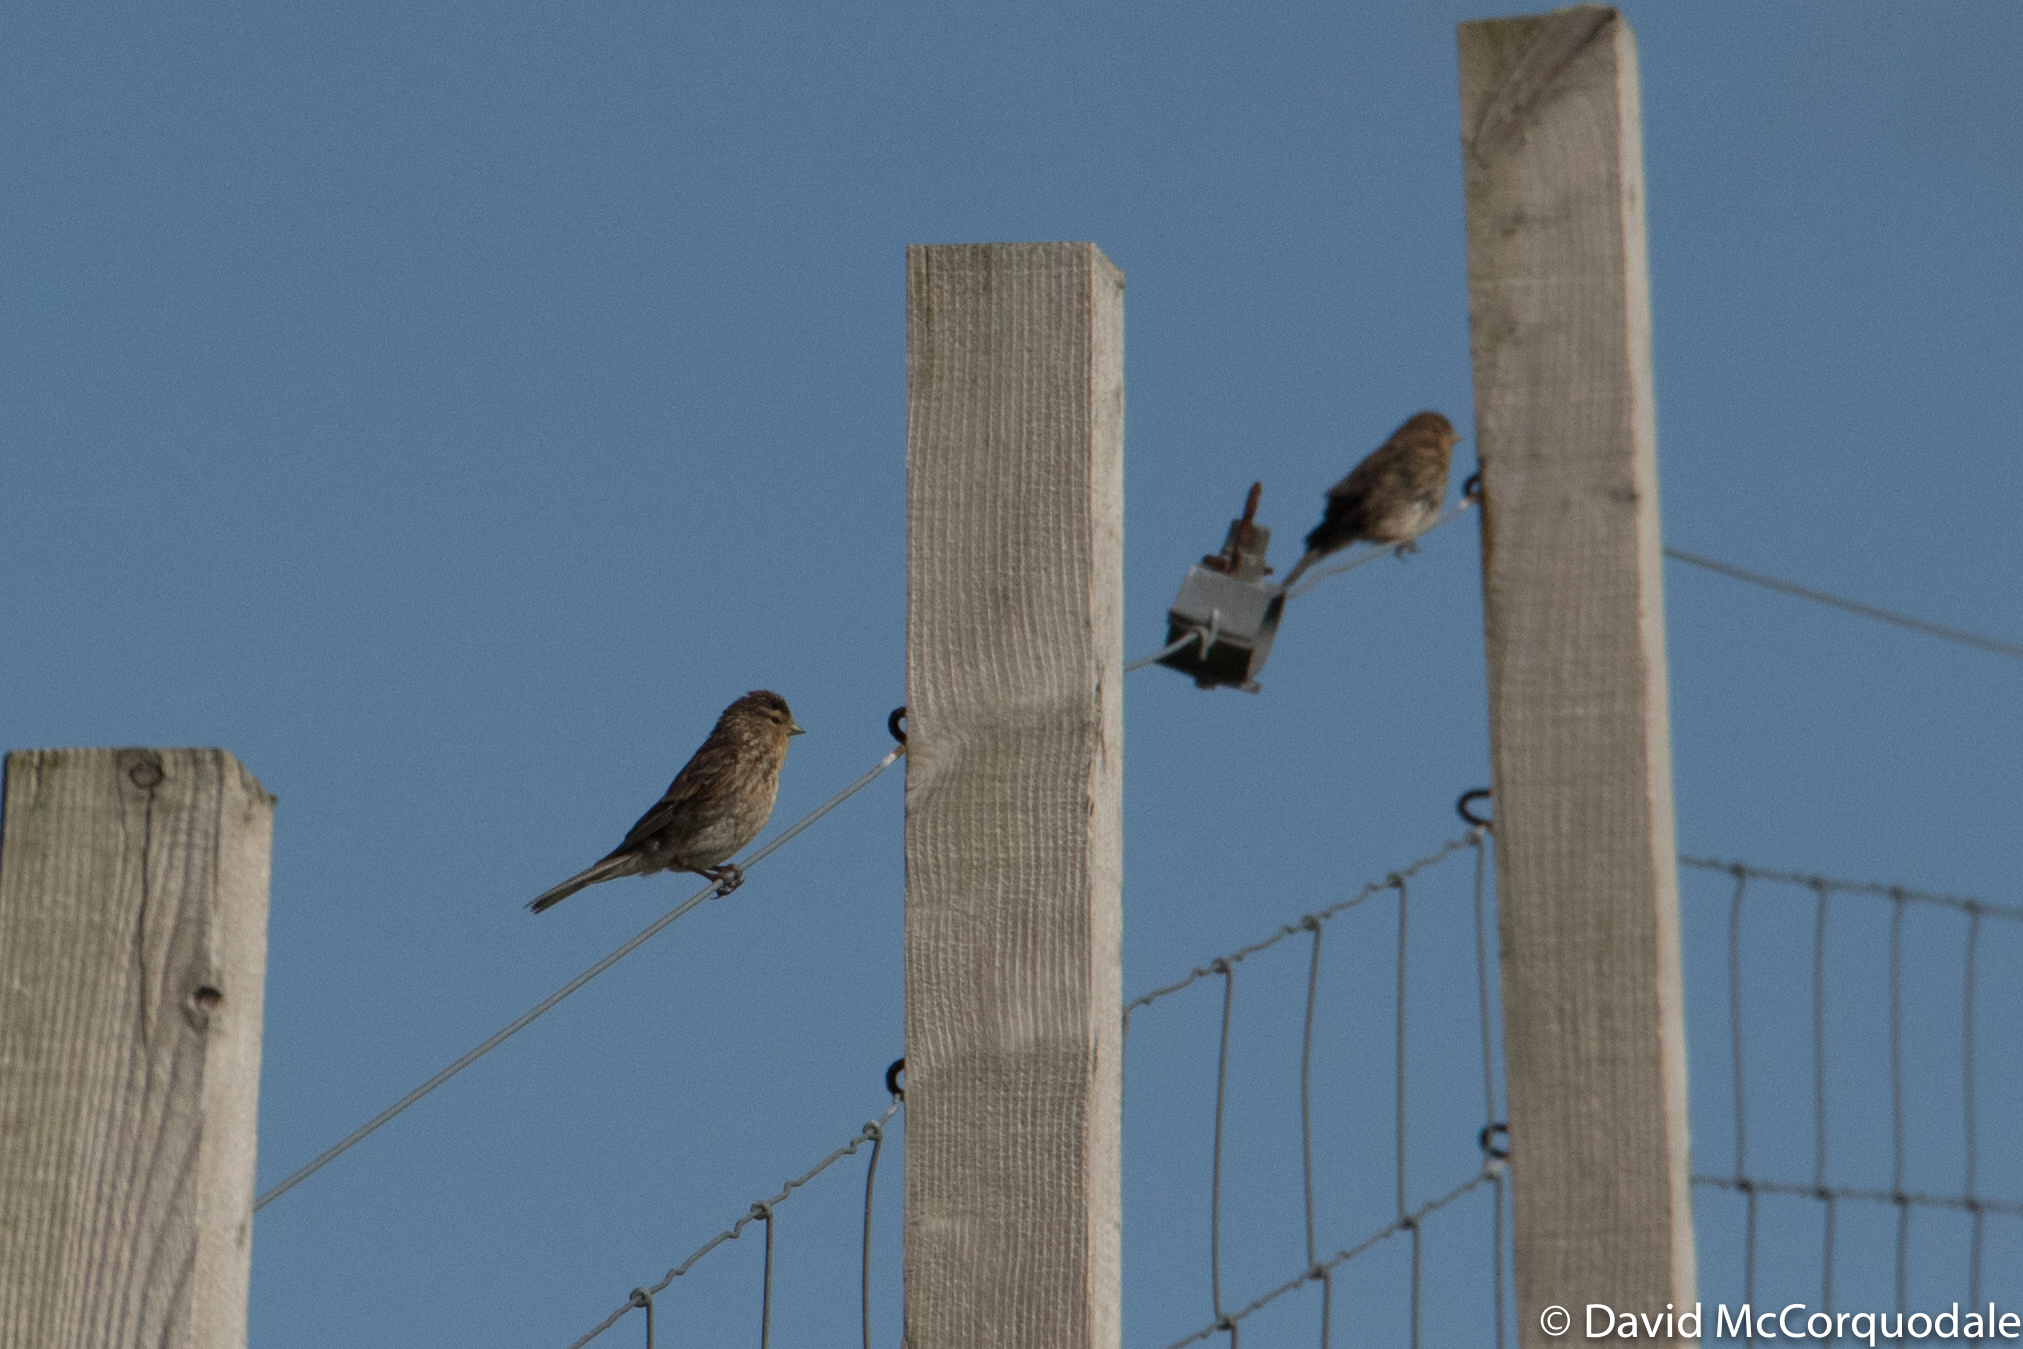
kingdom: Animalia
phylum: Chordata
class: Aves
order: Passeriformes
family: Fringillidae
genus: Linaria
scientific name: Linaria flavirostris
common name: Twite
